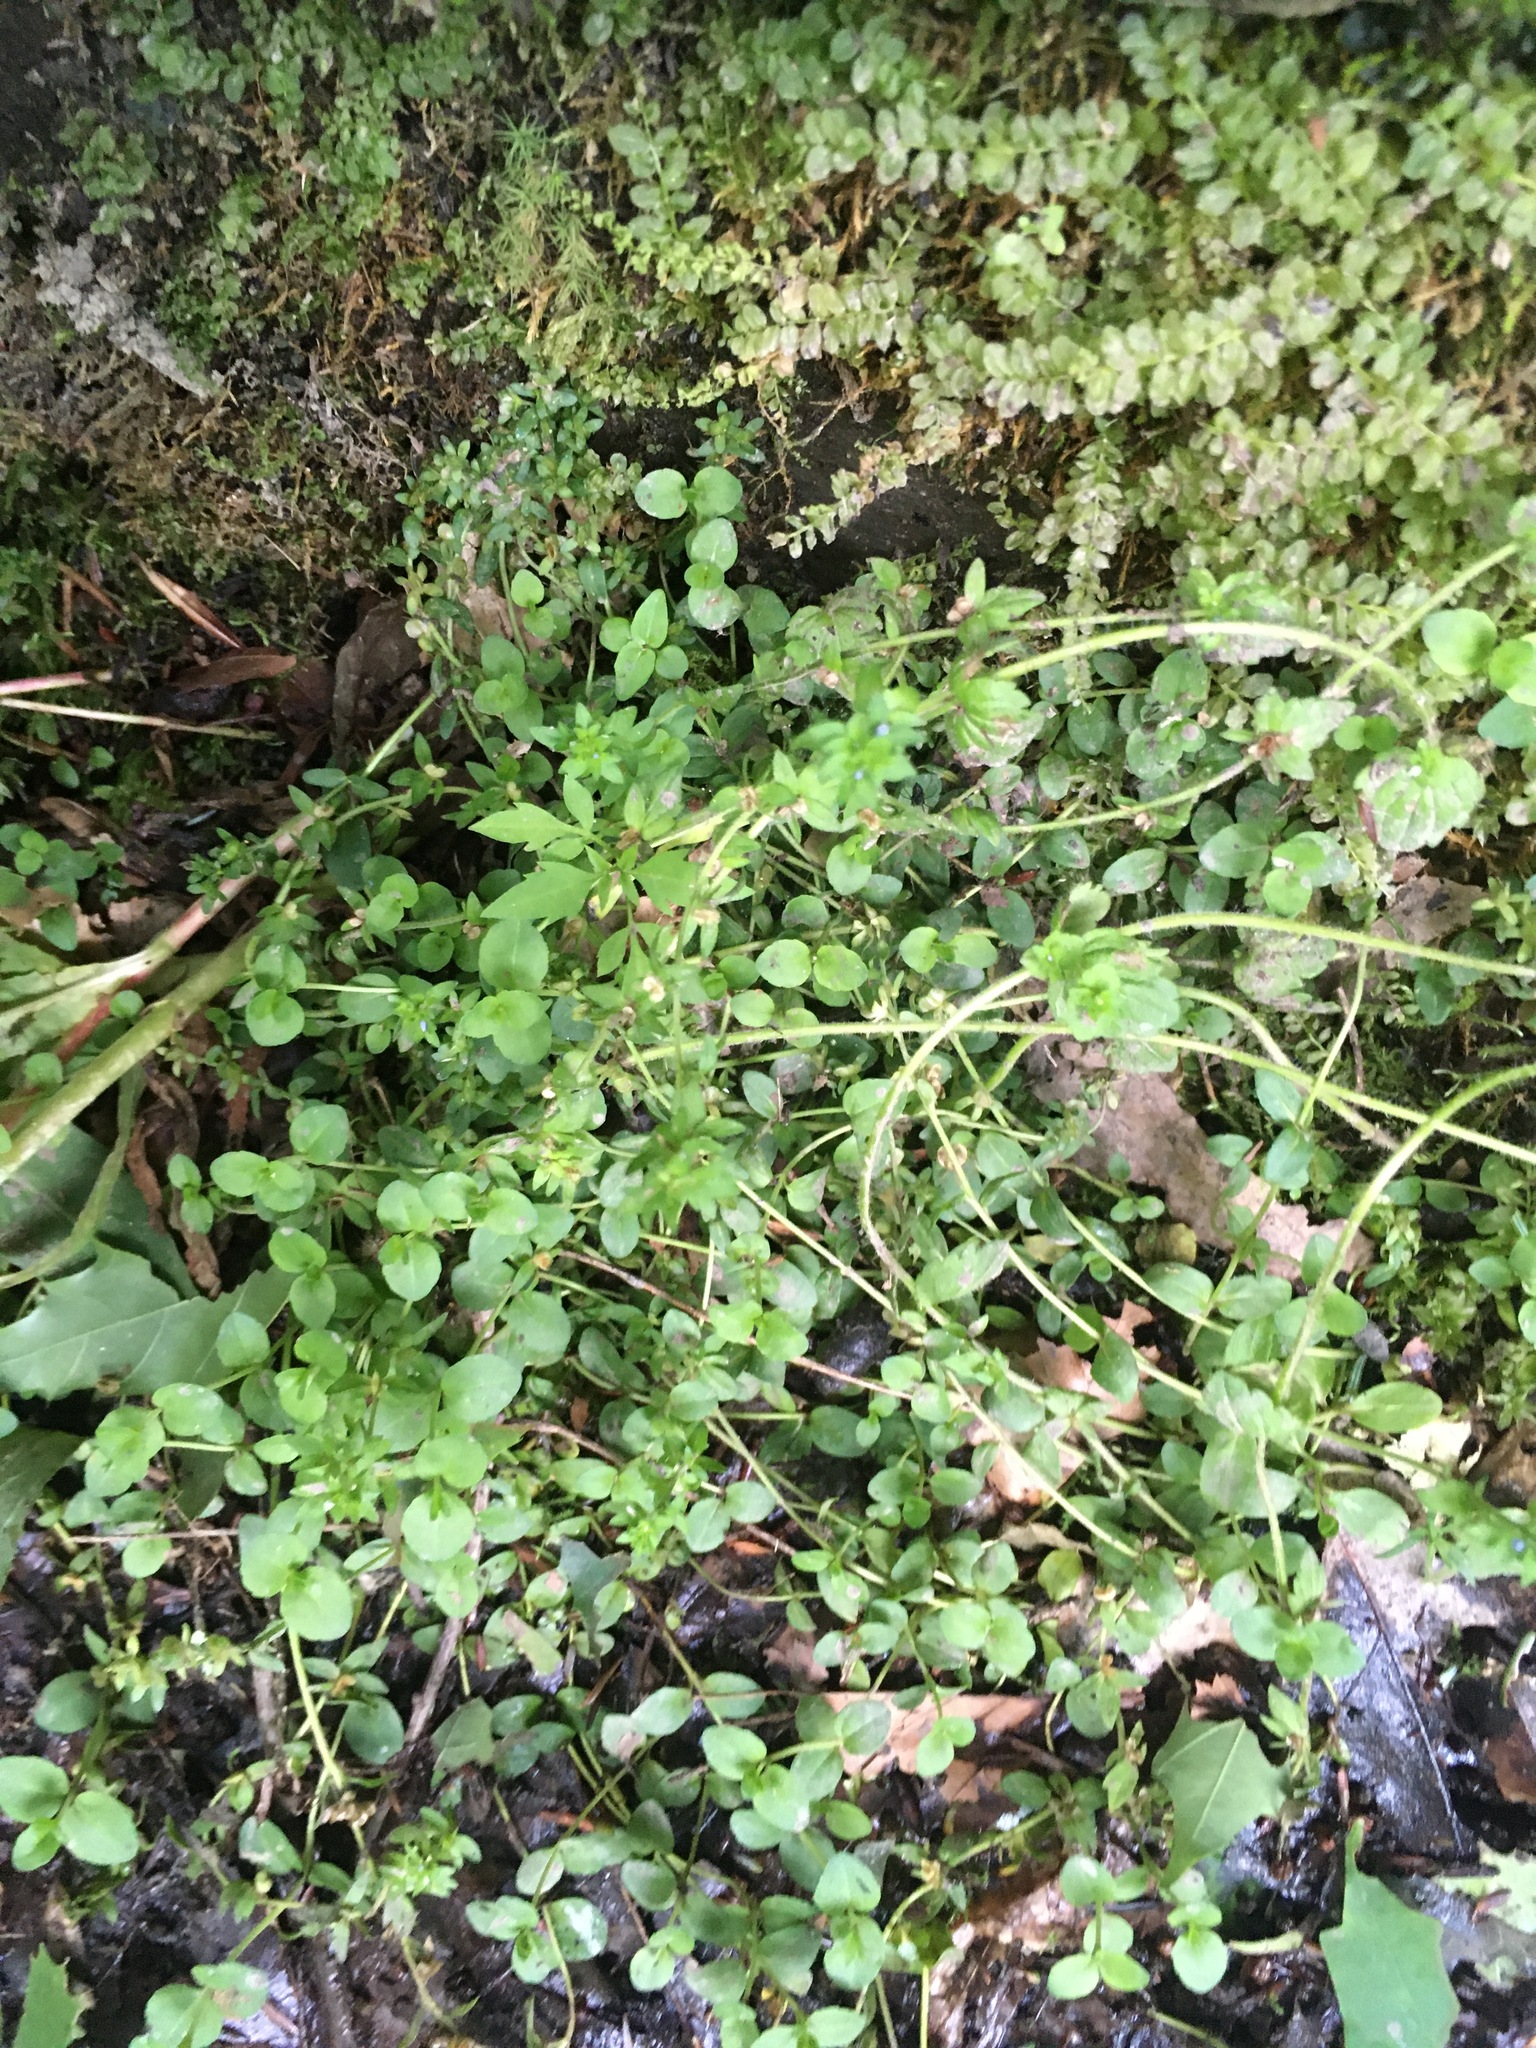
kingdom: Plantae
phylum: Tracheophyta
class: Magnoliopsida
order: Lamiales
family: Plantaginaceae
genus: Veronica
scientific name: Veronica serpyllifolia
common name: Thyme-leaved speedwell
